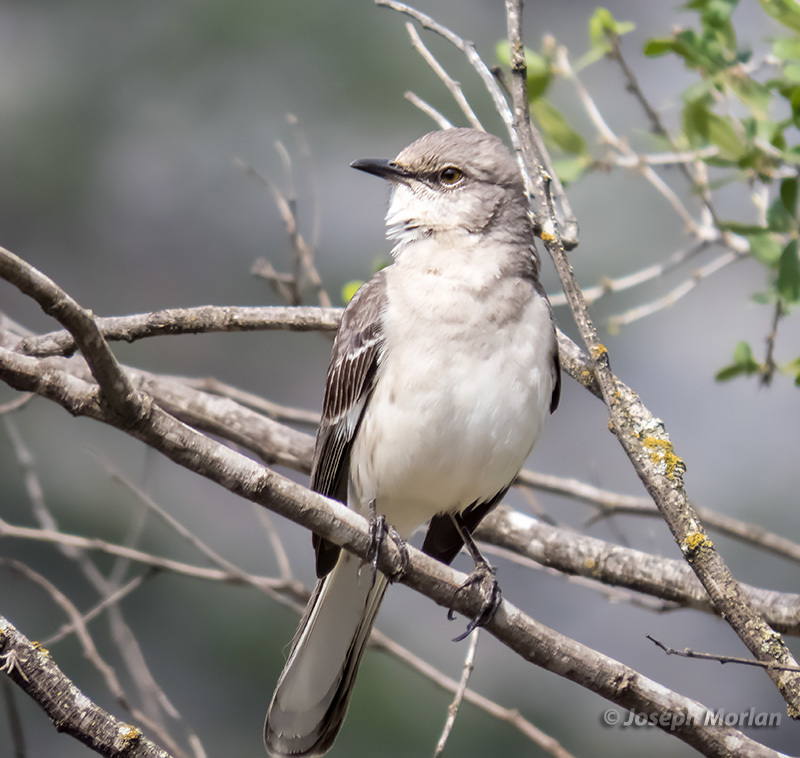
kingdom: Animalia
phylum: Chordata
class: Aves
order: Passeriformes
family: Mimidae
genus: Mimus
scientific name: Mimus polyglottos
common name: Northern mockingbird
